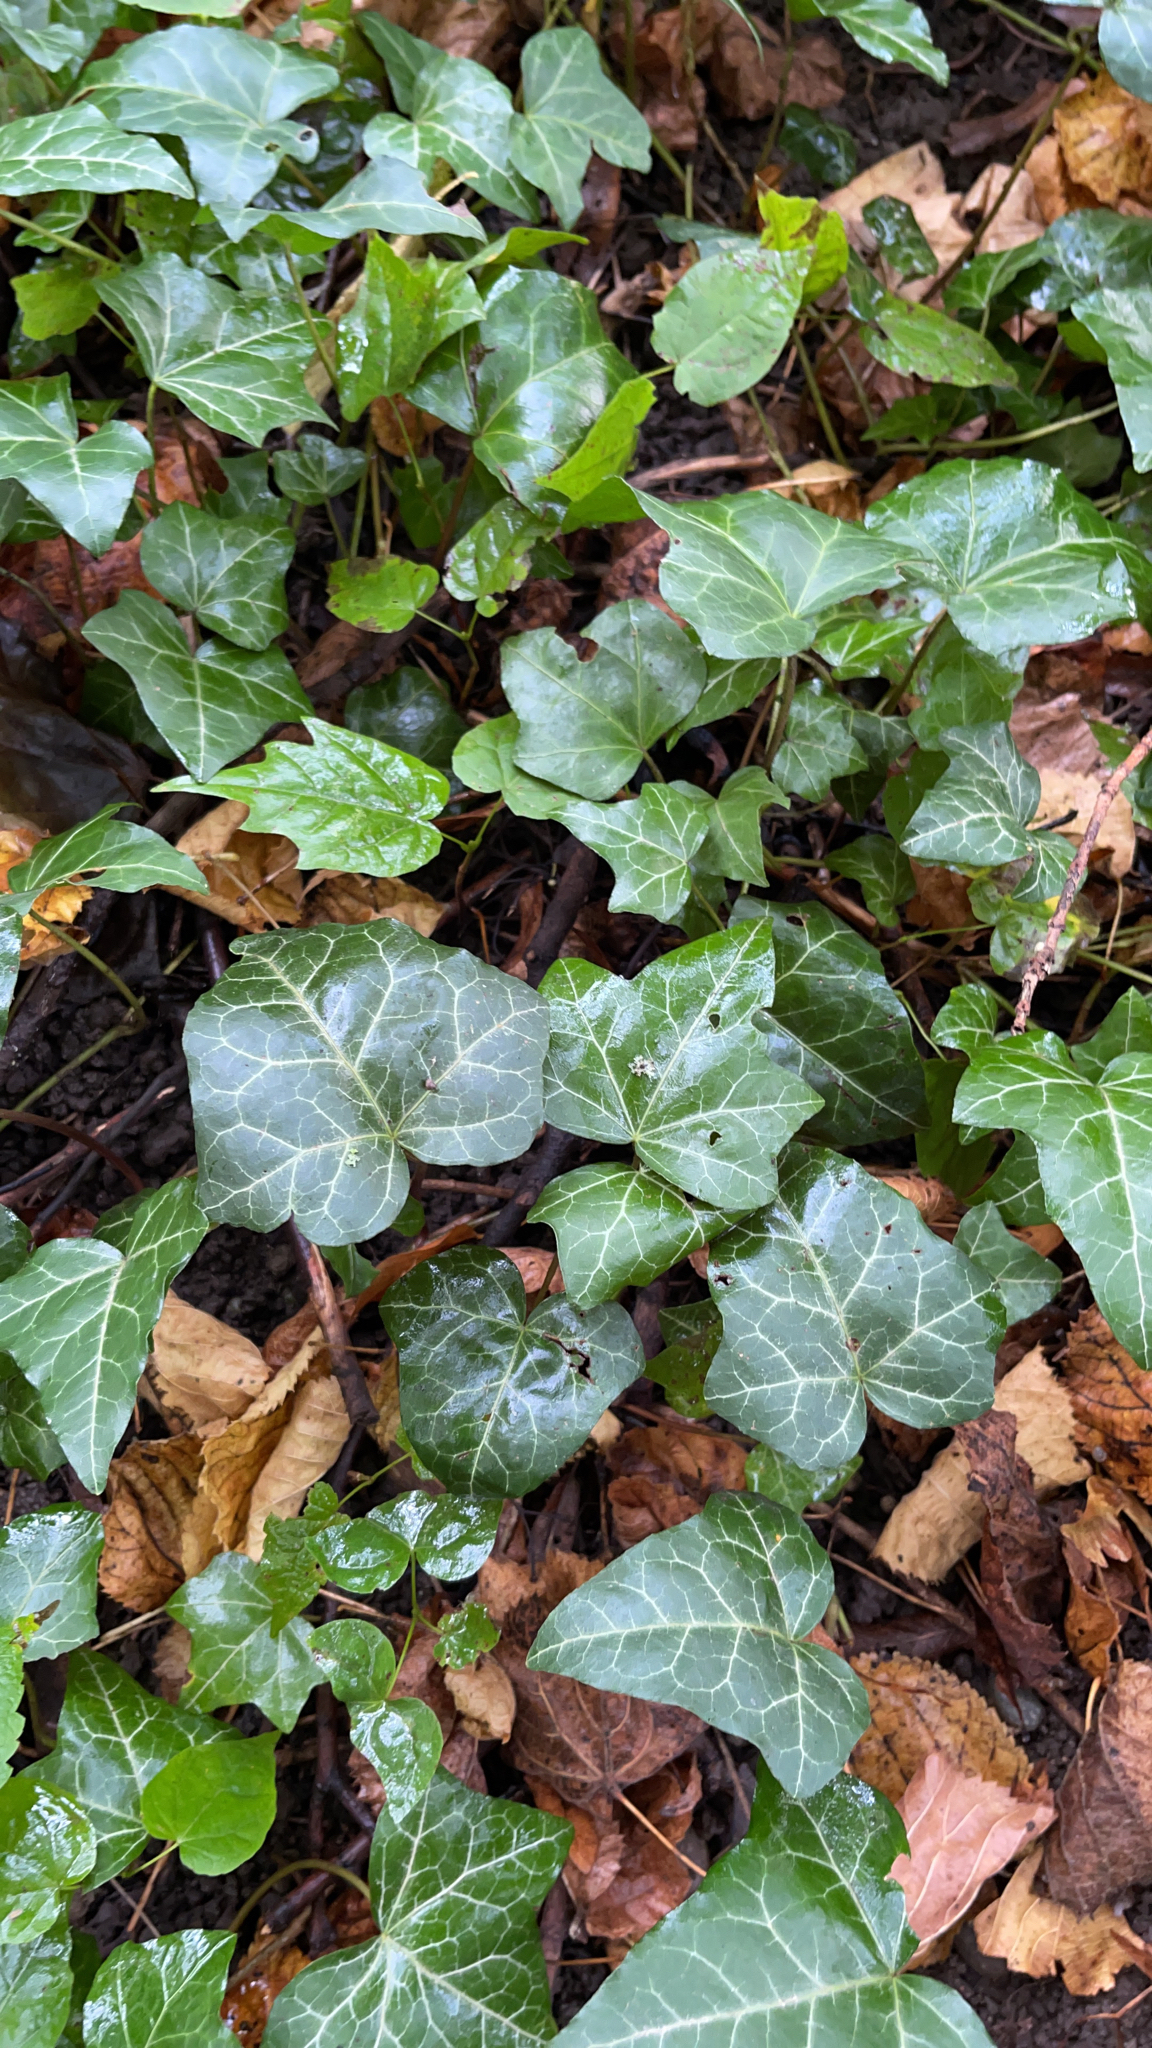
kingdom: Plantae
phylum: Tracheophyta
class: Magnoliopsida
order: Apiales
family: Araliaceae
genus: Hedera
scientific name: Hedera helix
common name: Ivy
